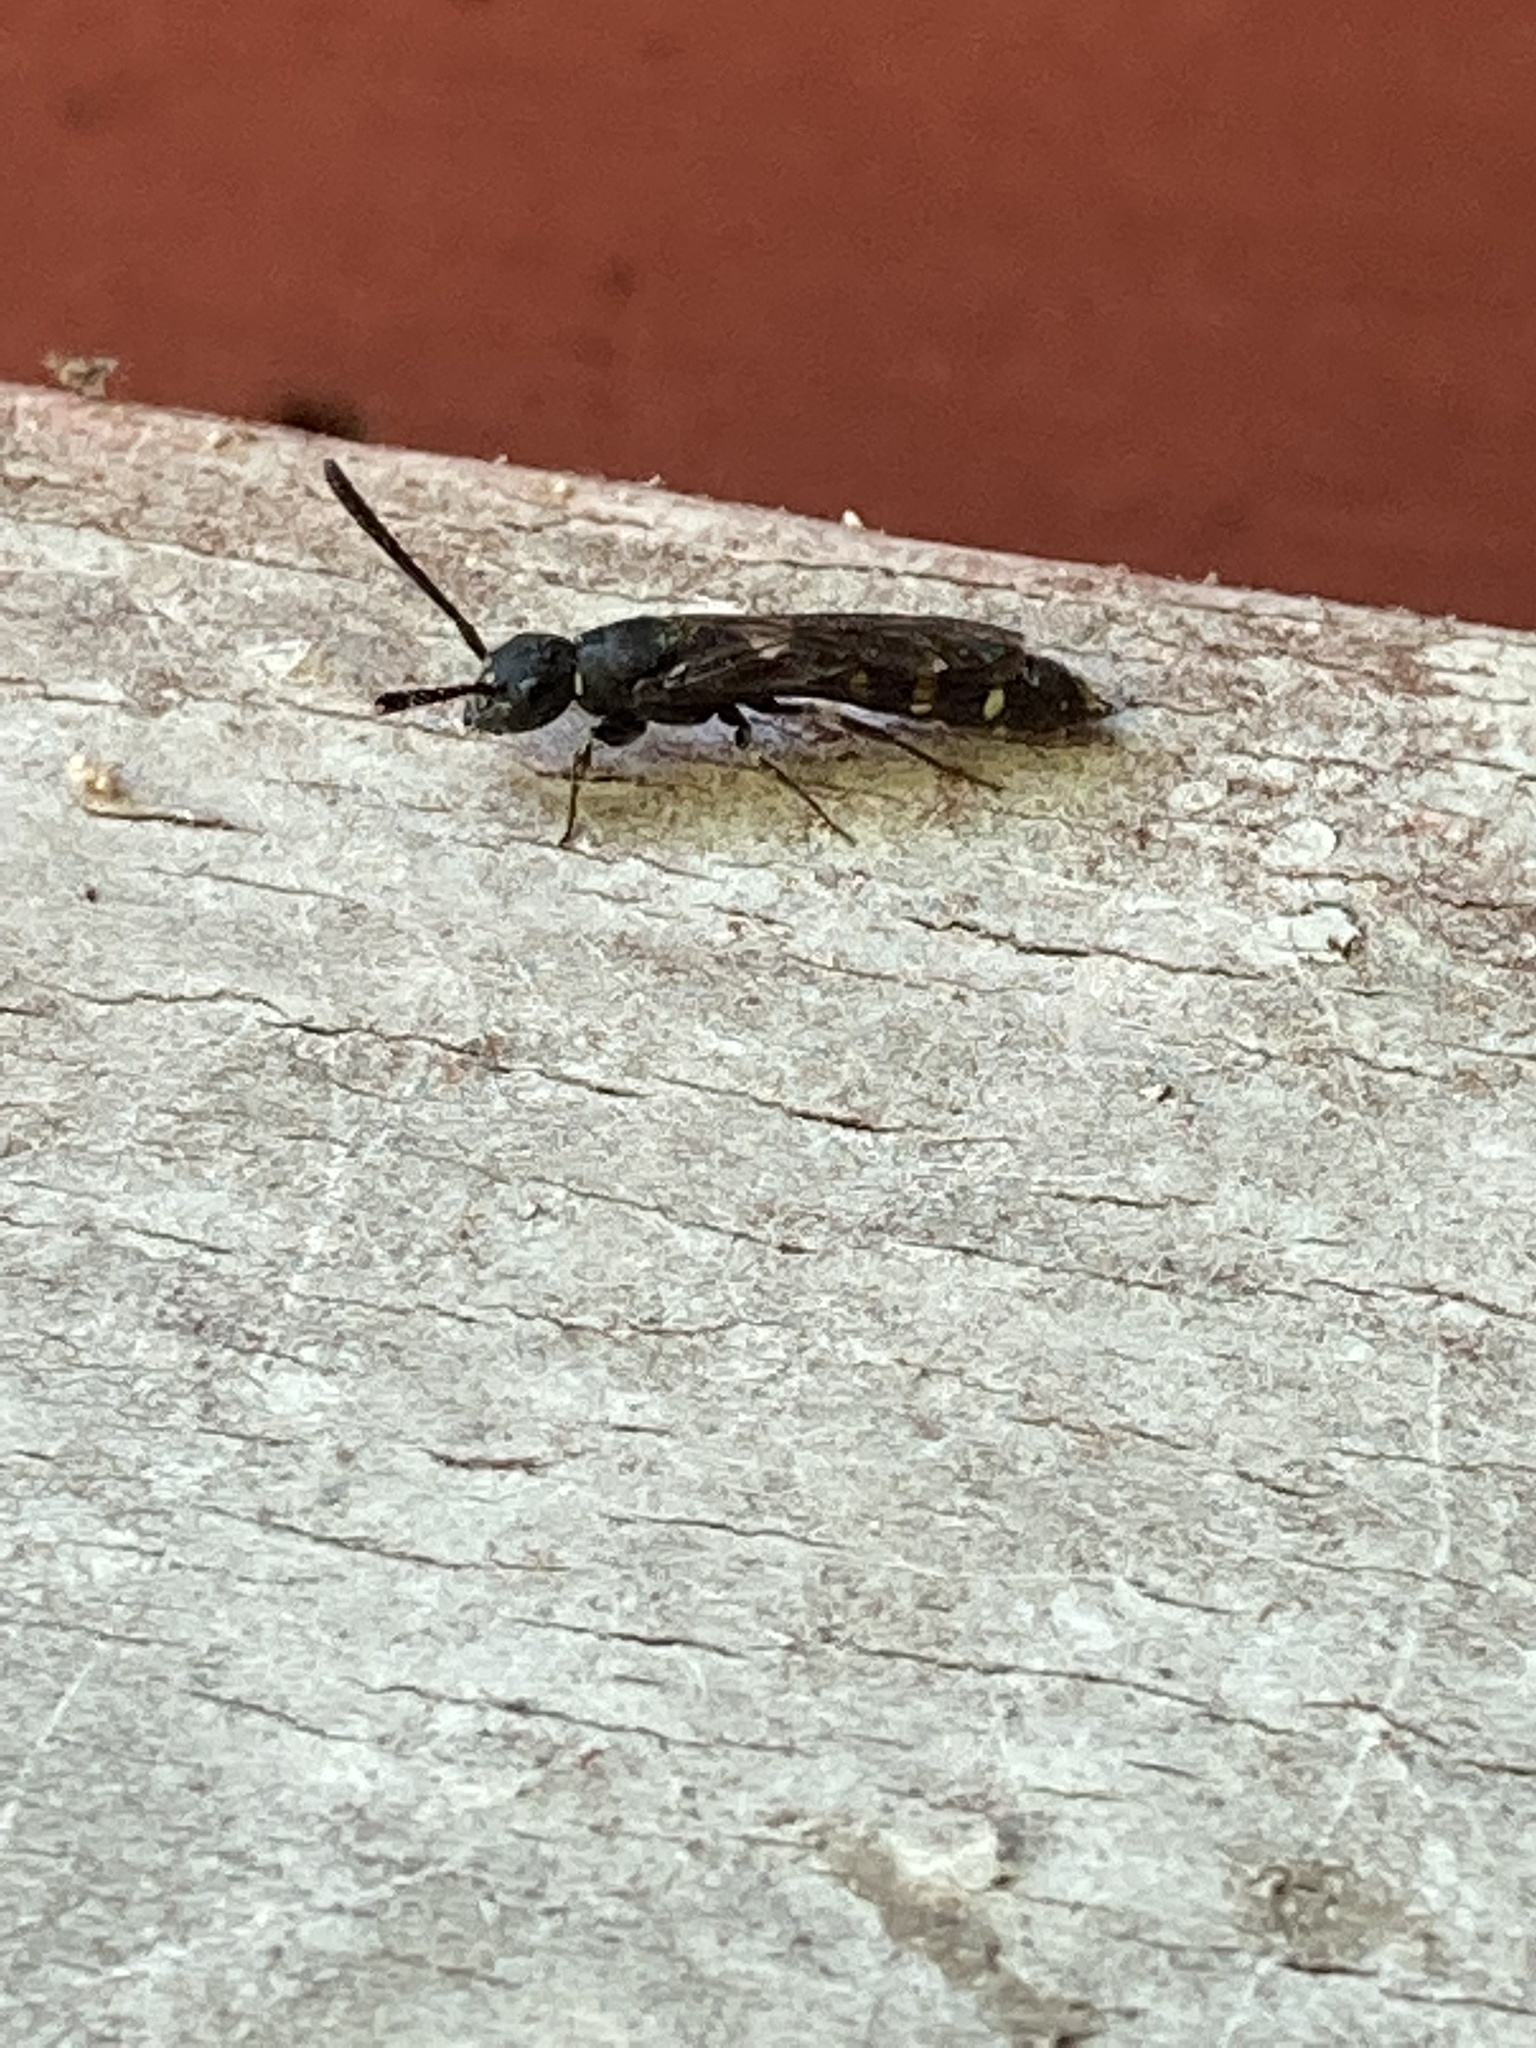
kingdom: Animalia
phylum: Arthropoda
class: Insecta
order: Hymenoptera
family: Sapygidae
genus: Monosapyga
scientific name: Monosapyga clavicornis
